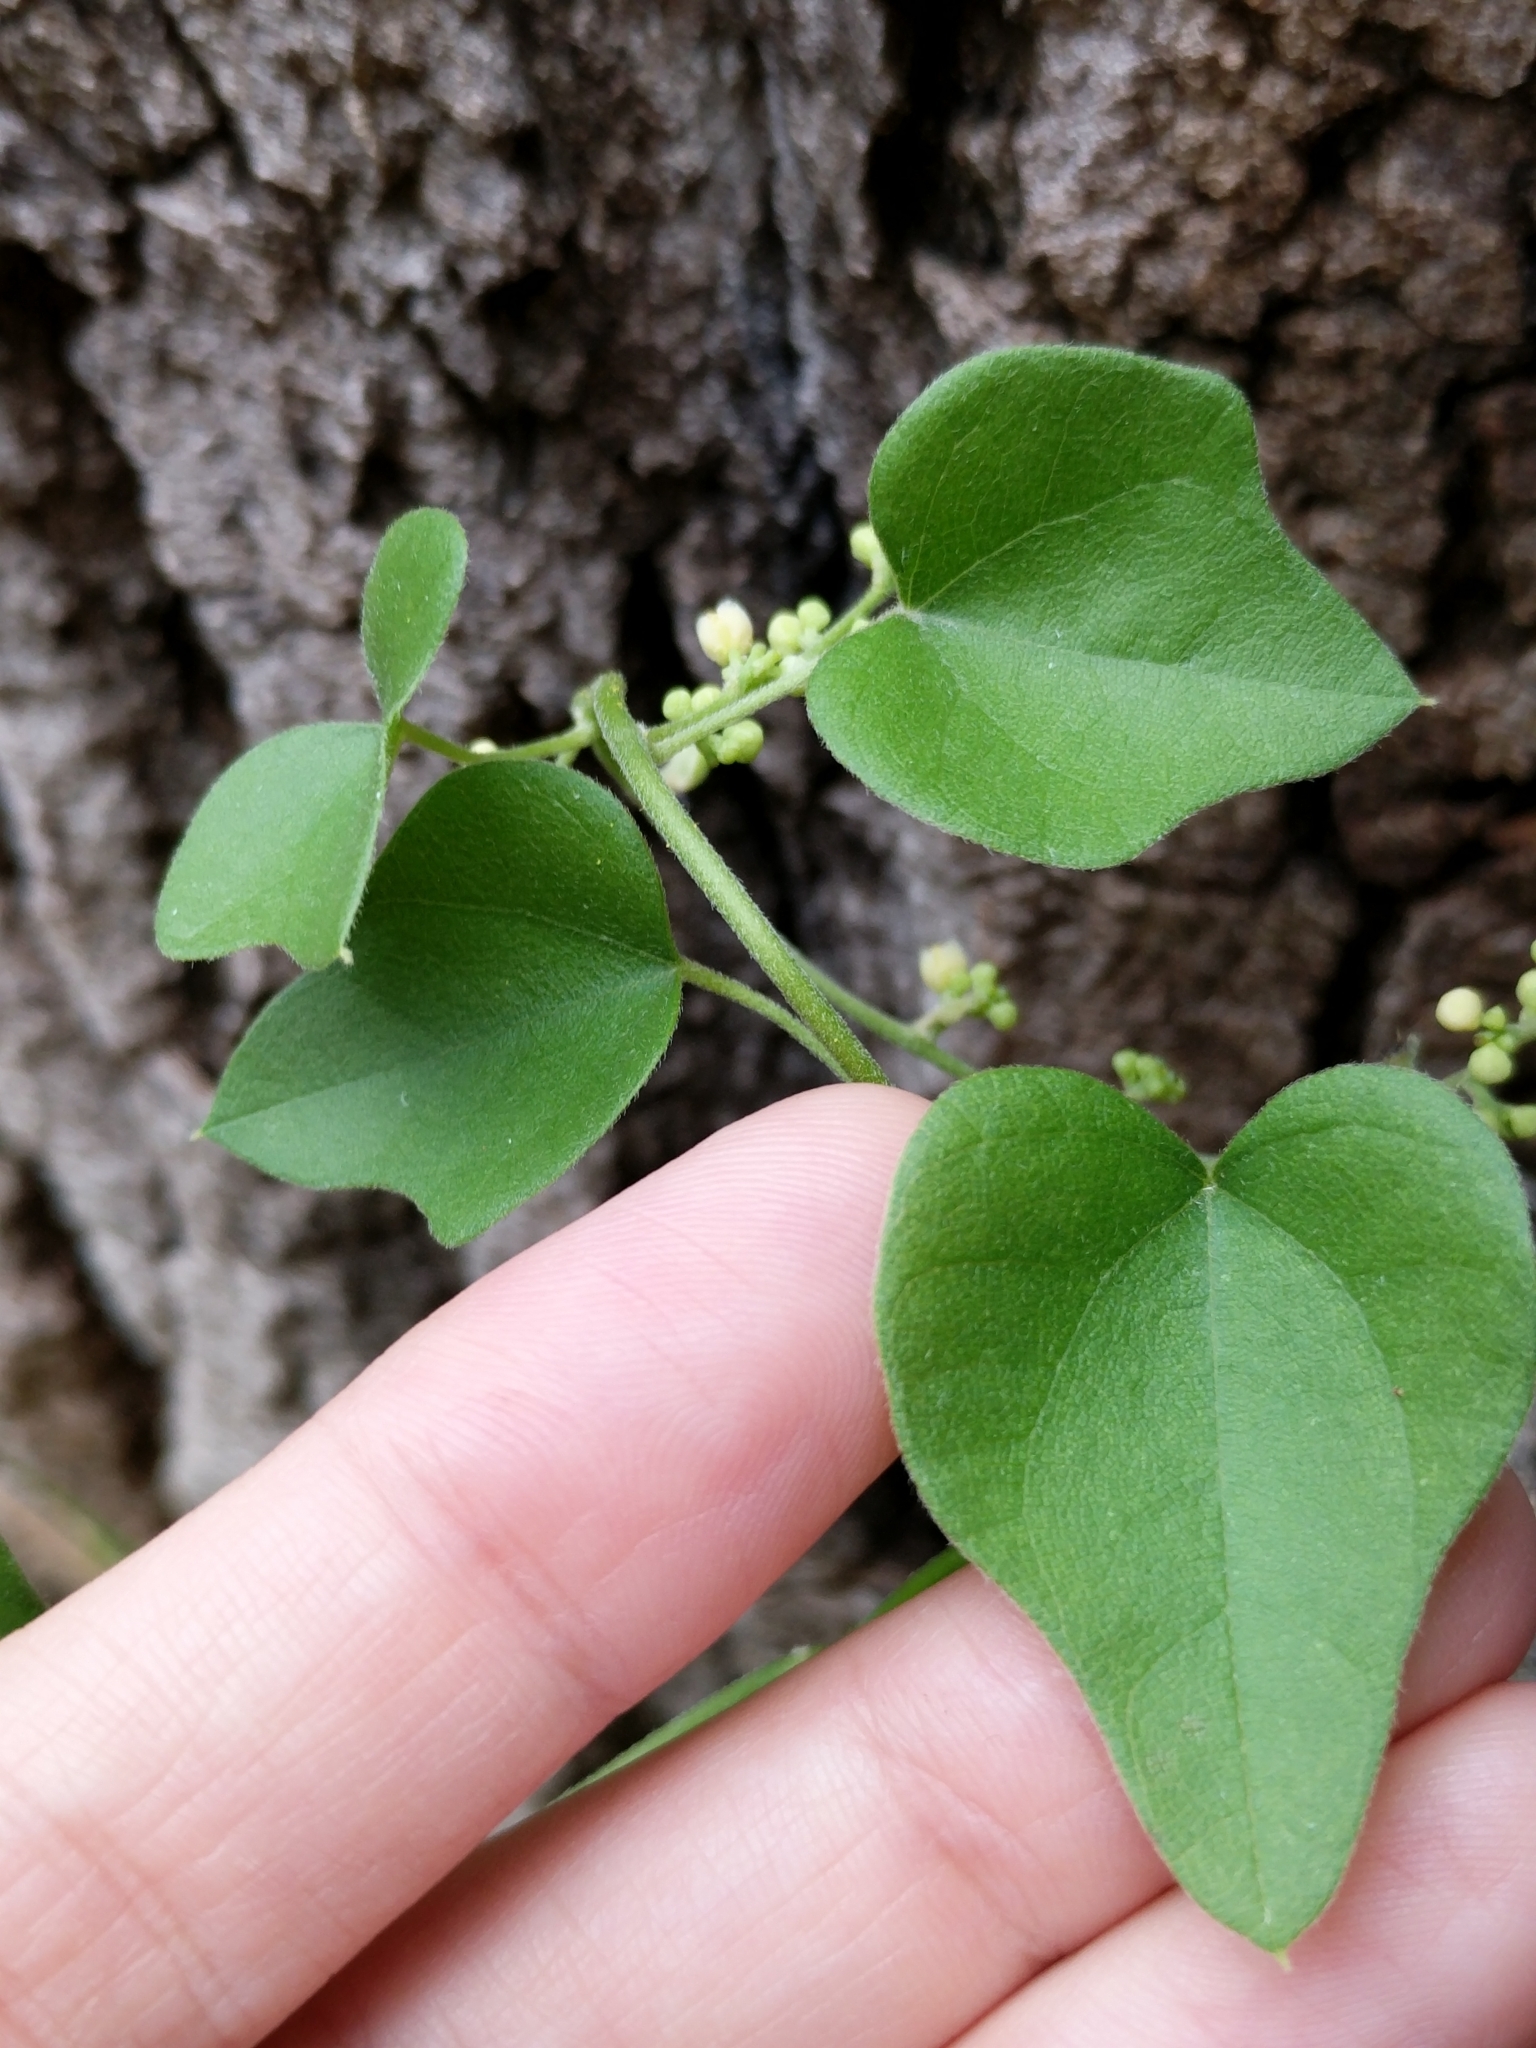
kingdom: Plantae
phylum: Tracheophyta
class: Magnoliopsida
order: Ranunculales
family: Menispermaceae
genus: Cocculus
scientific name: Cocculus carolinus
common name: Carolina moonseed
